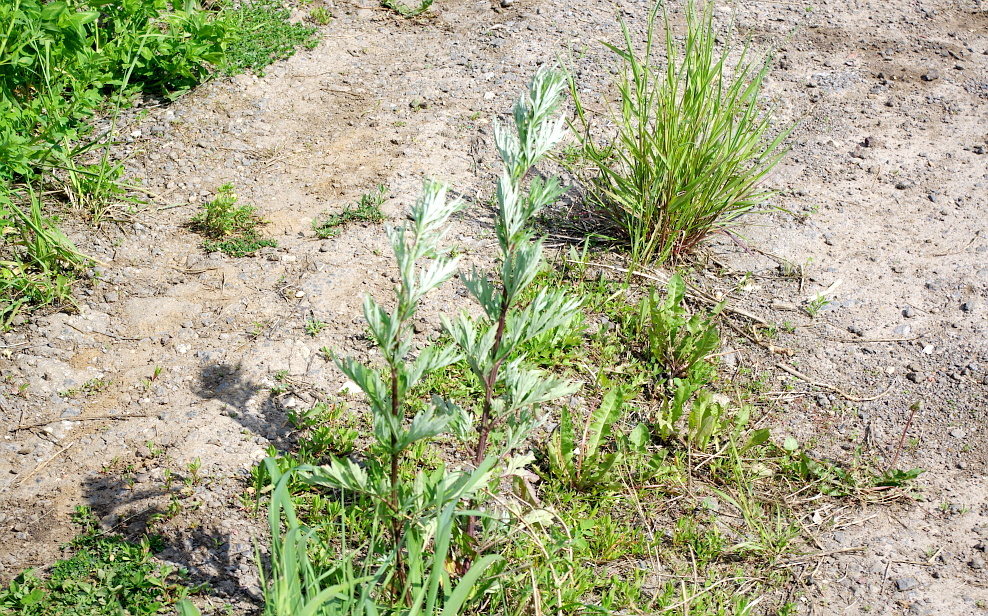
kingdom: Plantae
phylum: Tracheophyta
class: Magnoliopsida
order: Asterales
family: Asteraceae
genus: Artemisia
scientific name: Artemisia vulgaris
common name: Mugwort
